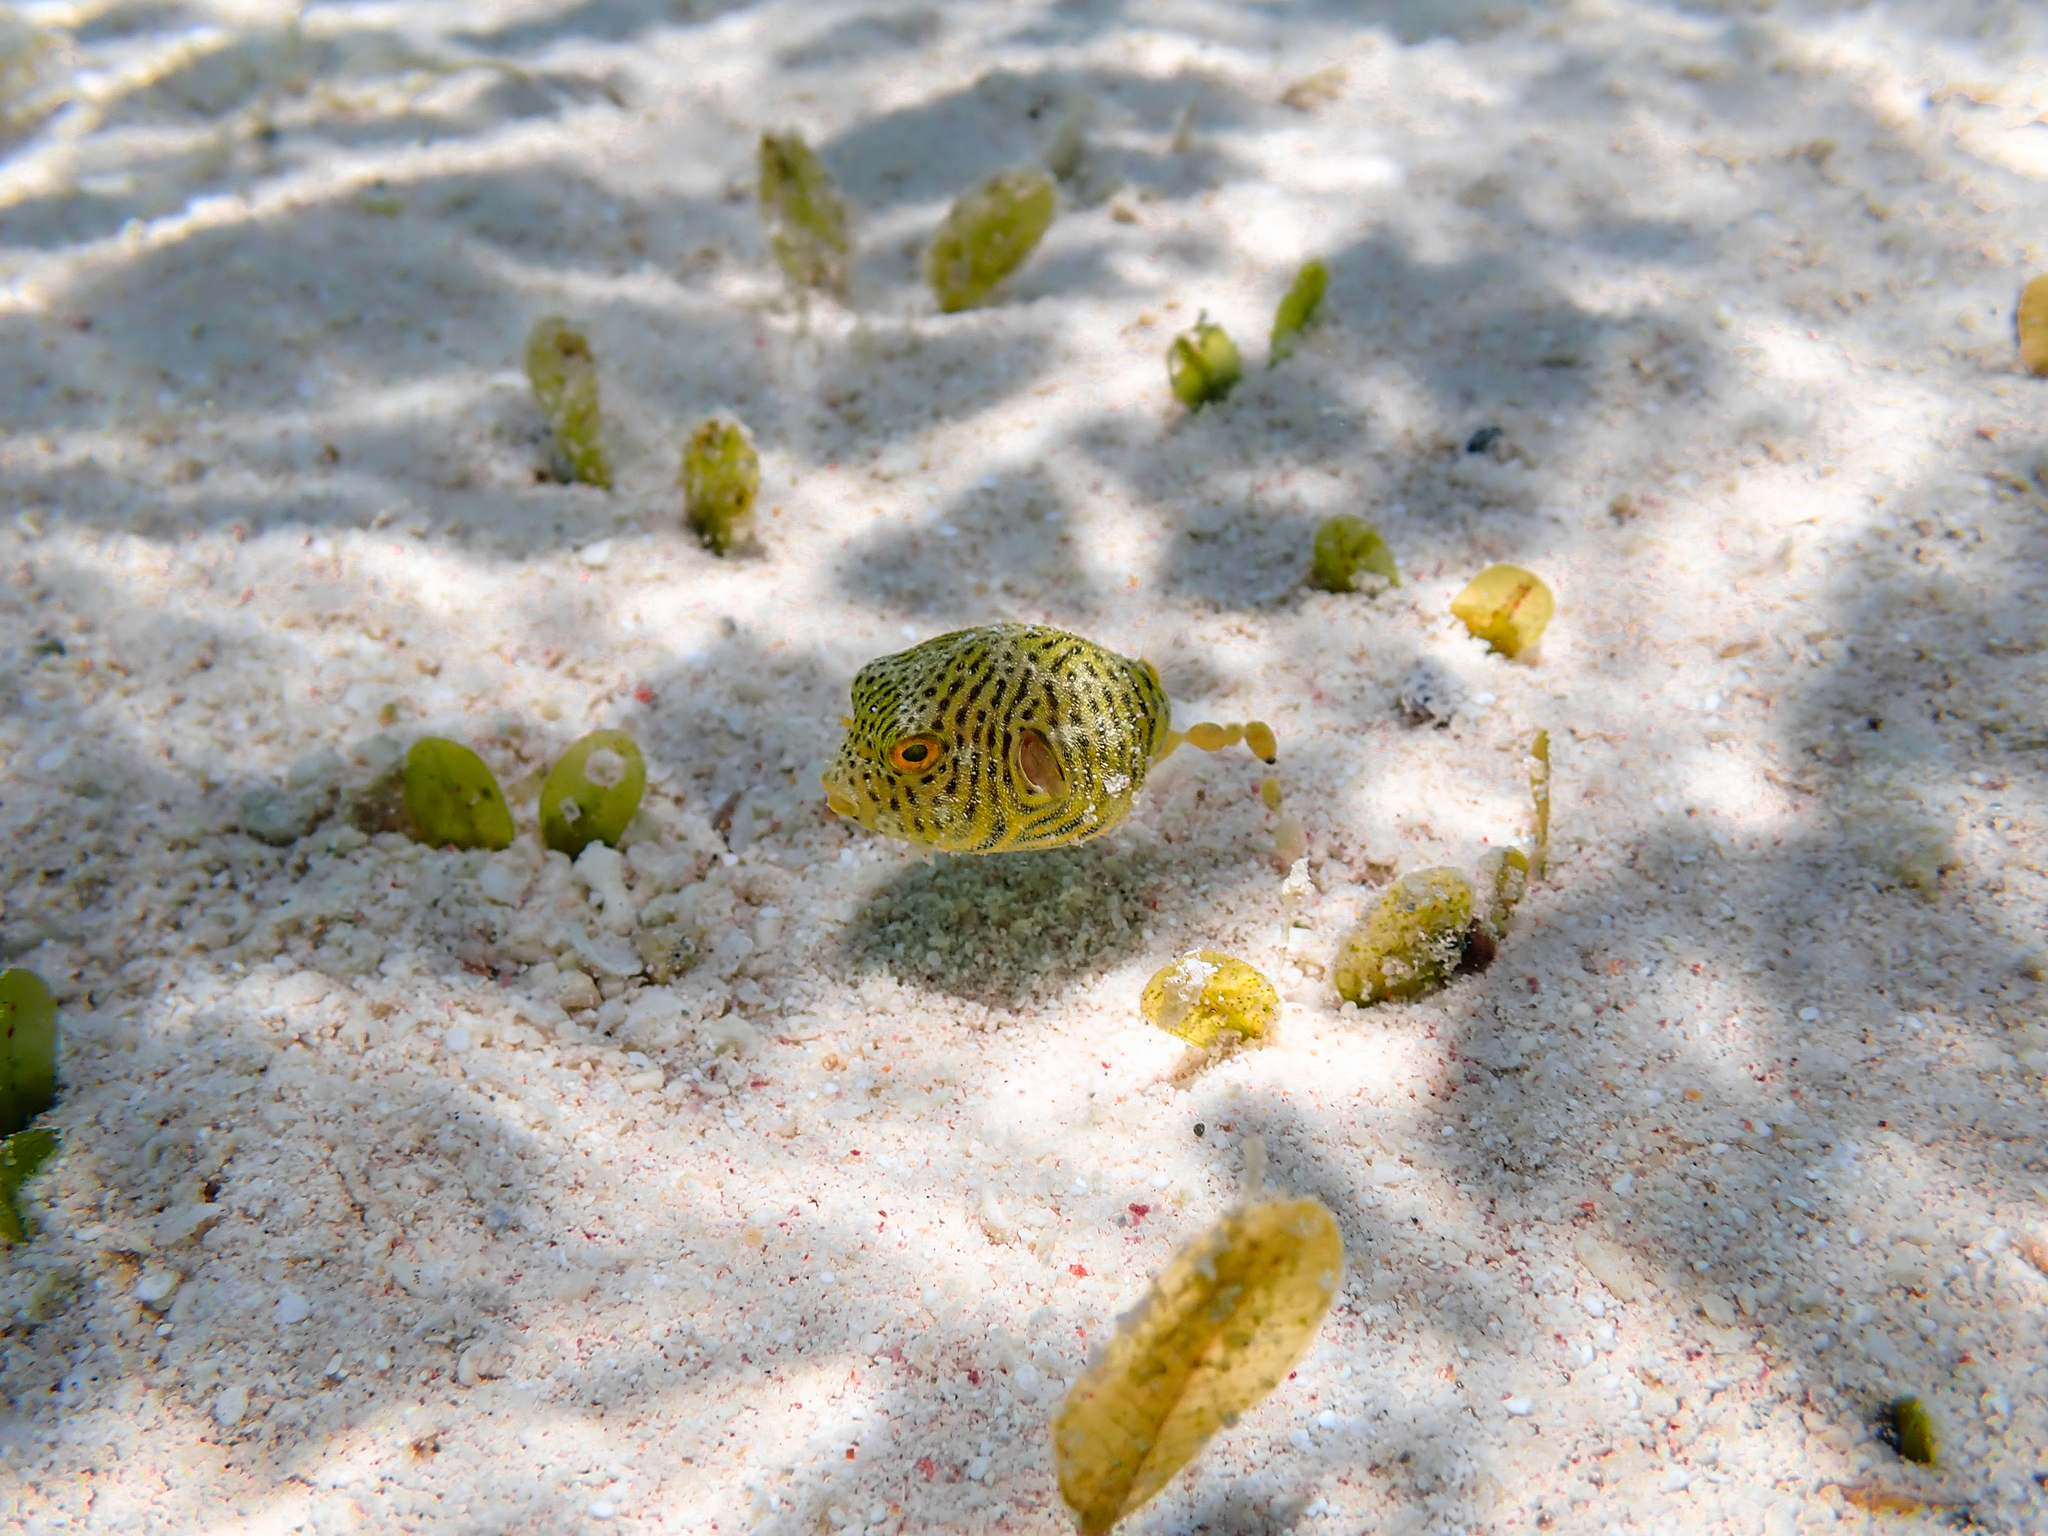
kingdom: Animalia
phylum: Chordata
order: Tetraodontiformes
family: Tetraodontidae
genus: Arothron
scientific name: Arothron stellatus
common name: Star blaasop
